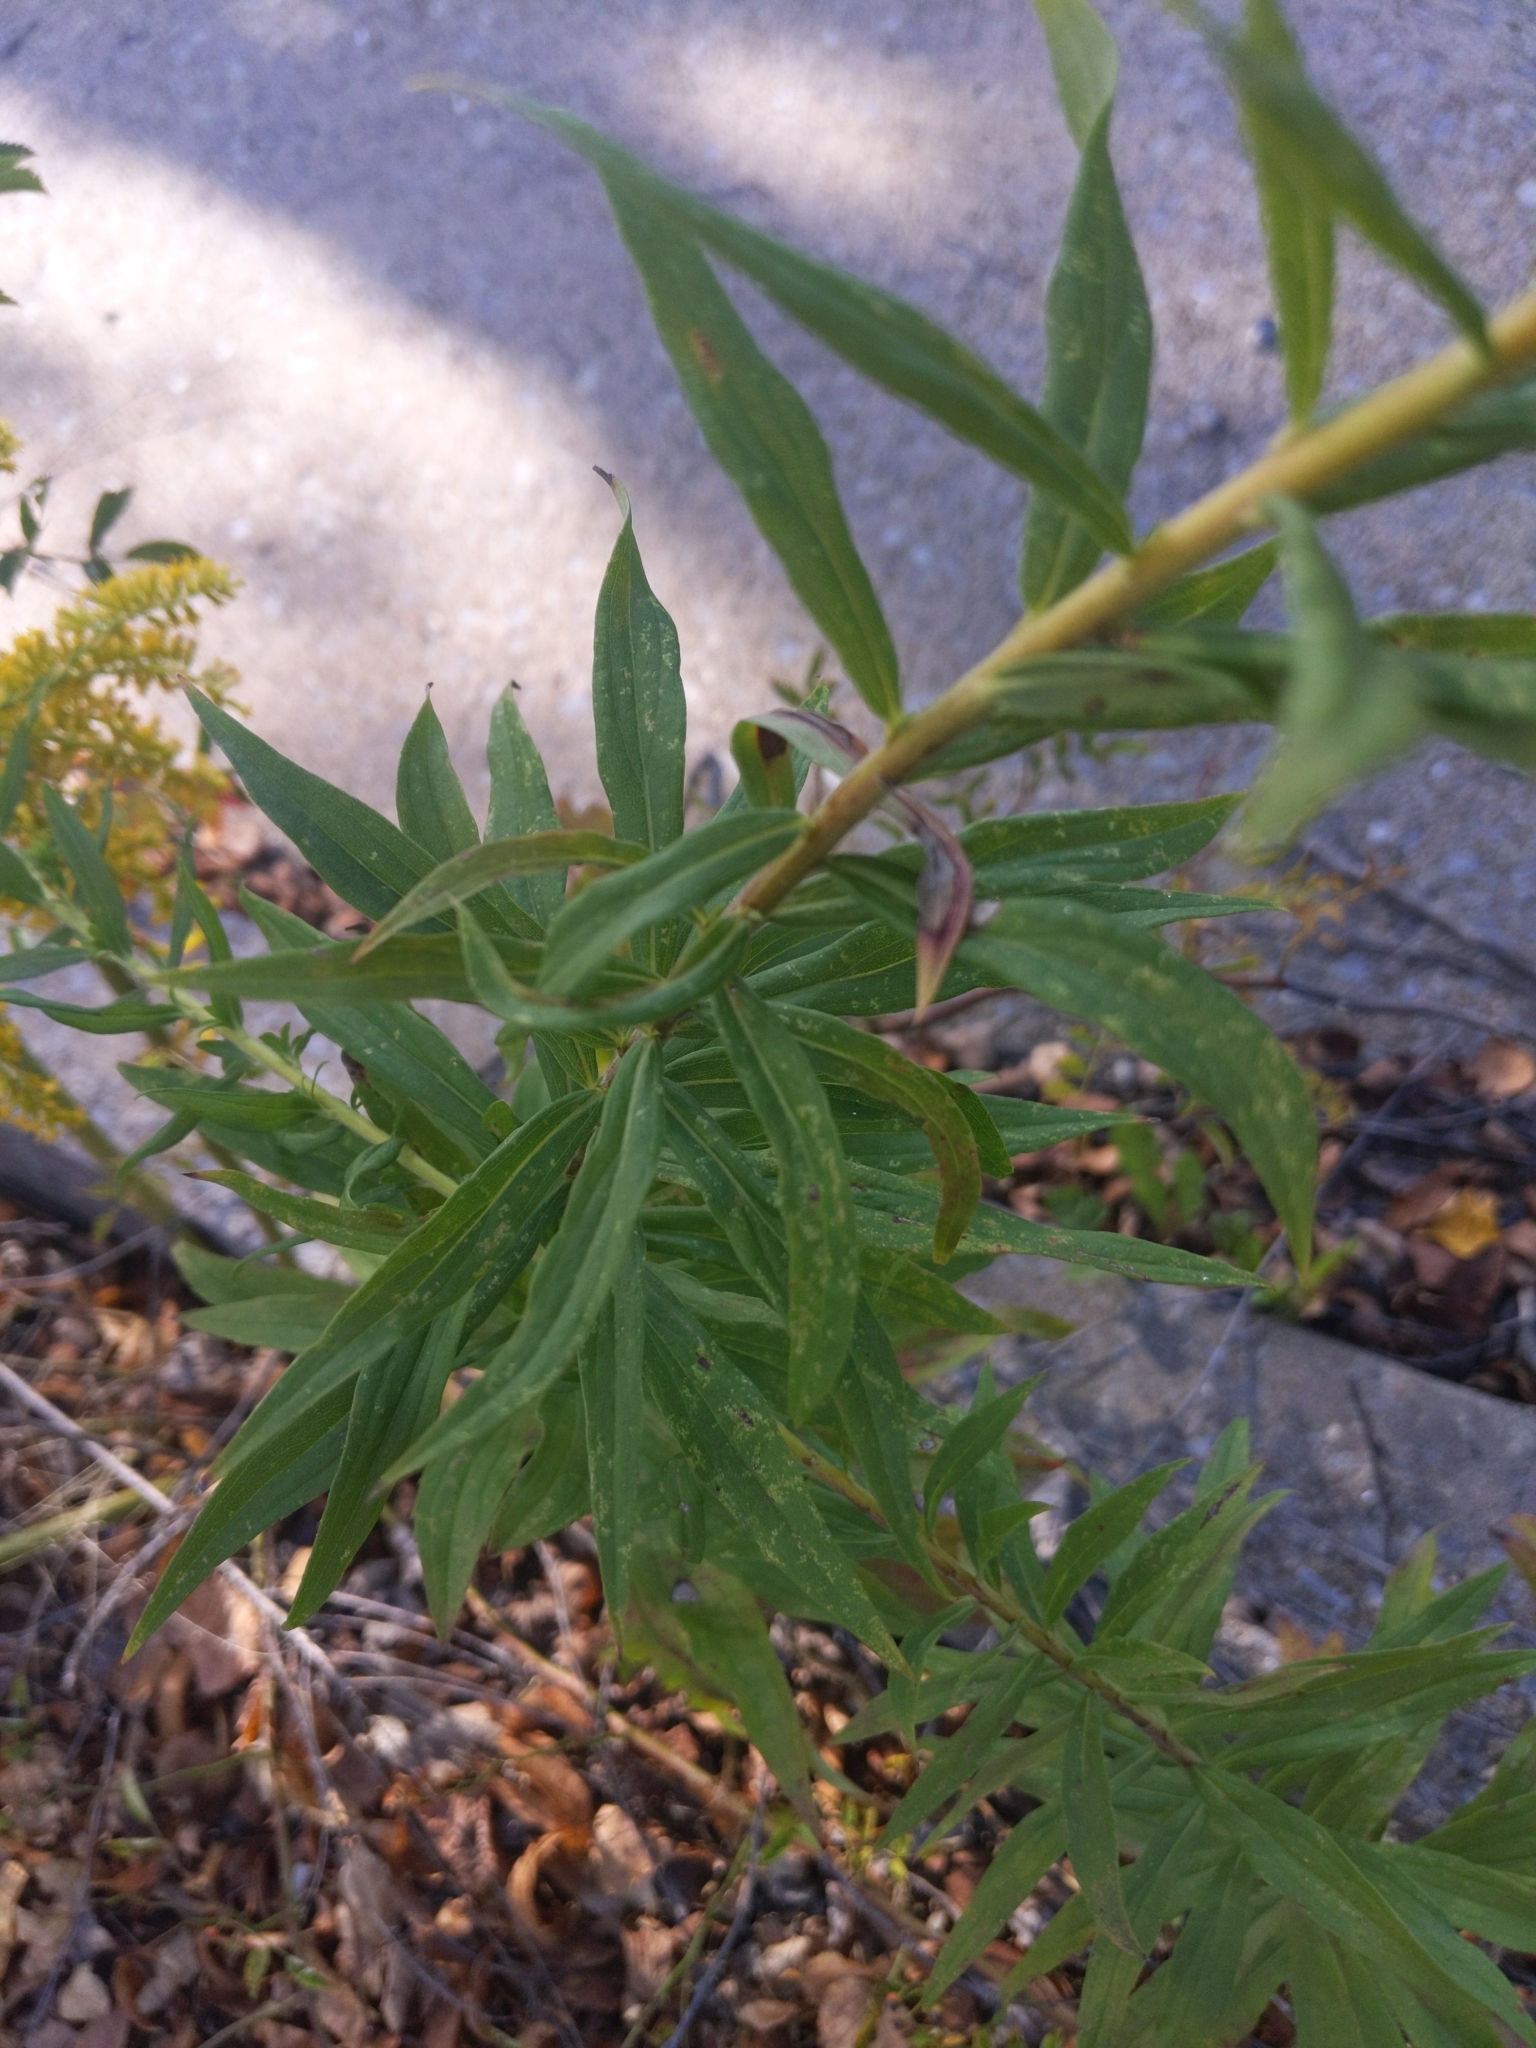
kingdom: Plantae
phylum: Tracheophyta
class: Magnoliopsida
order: Asterales
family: Asteraceae
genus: Solidago
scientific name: Solidago altissima
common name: Late goldenrod
